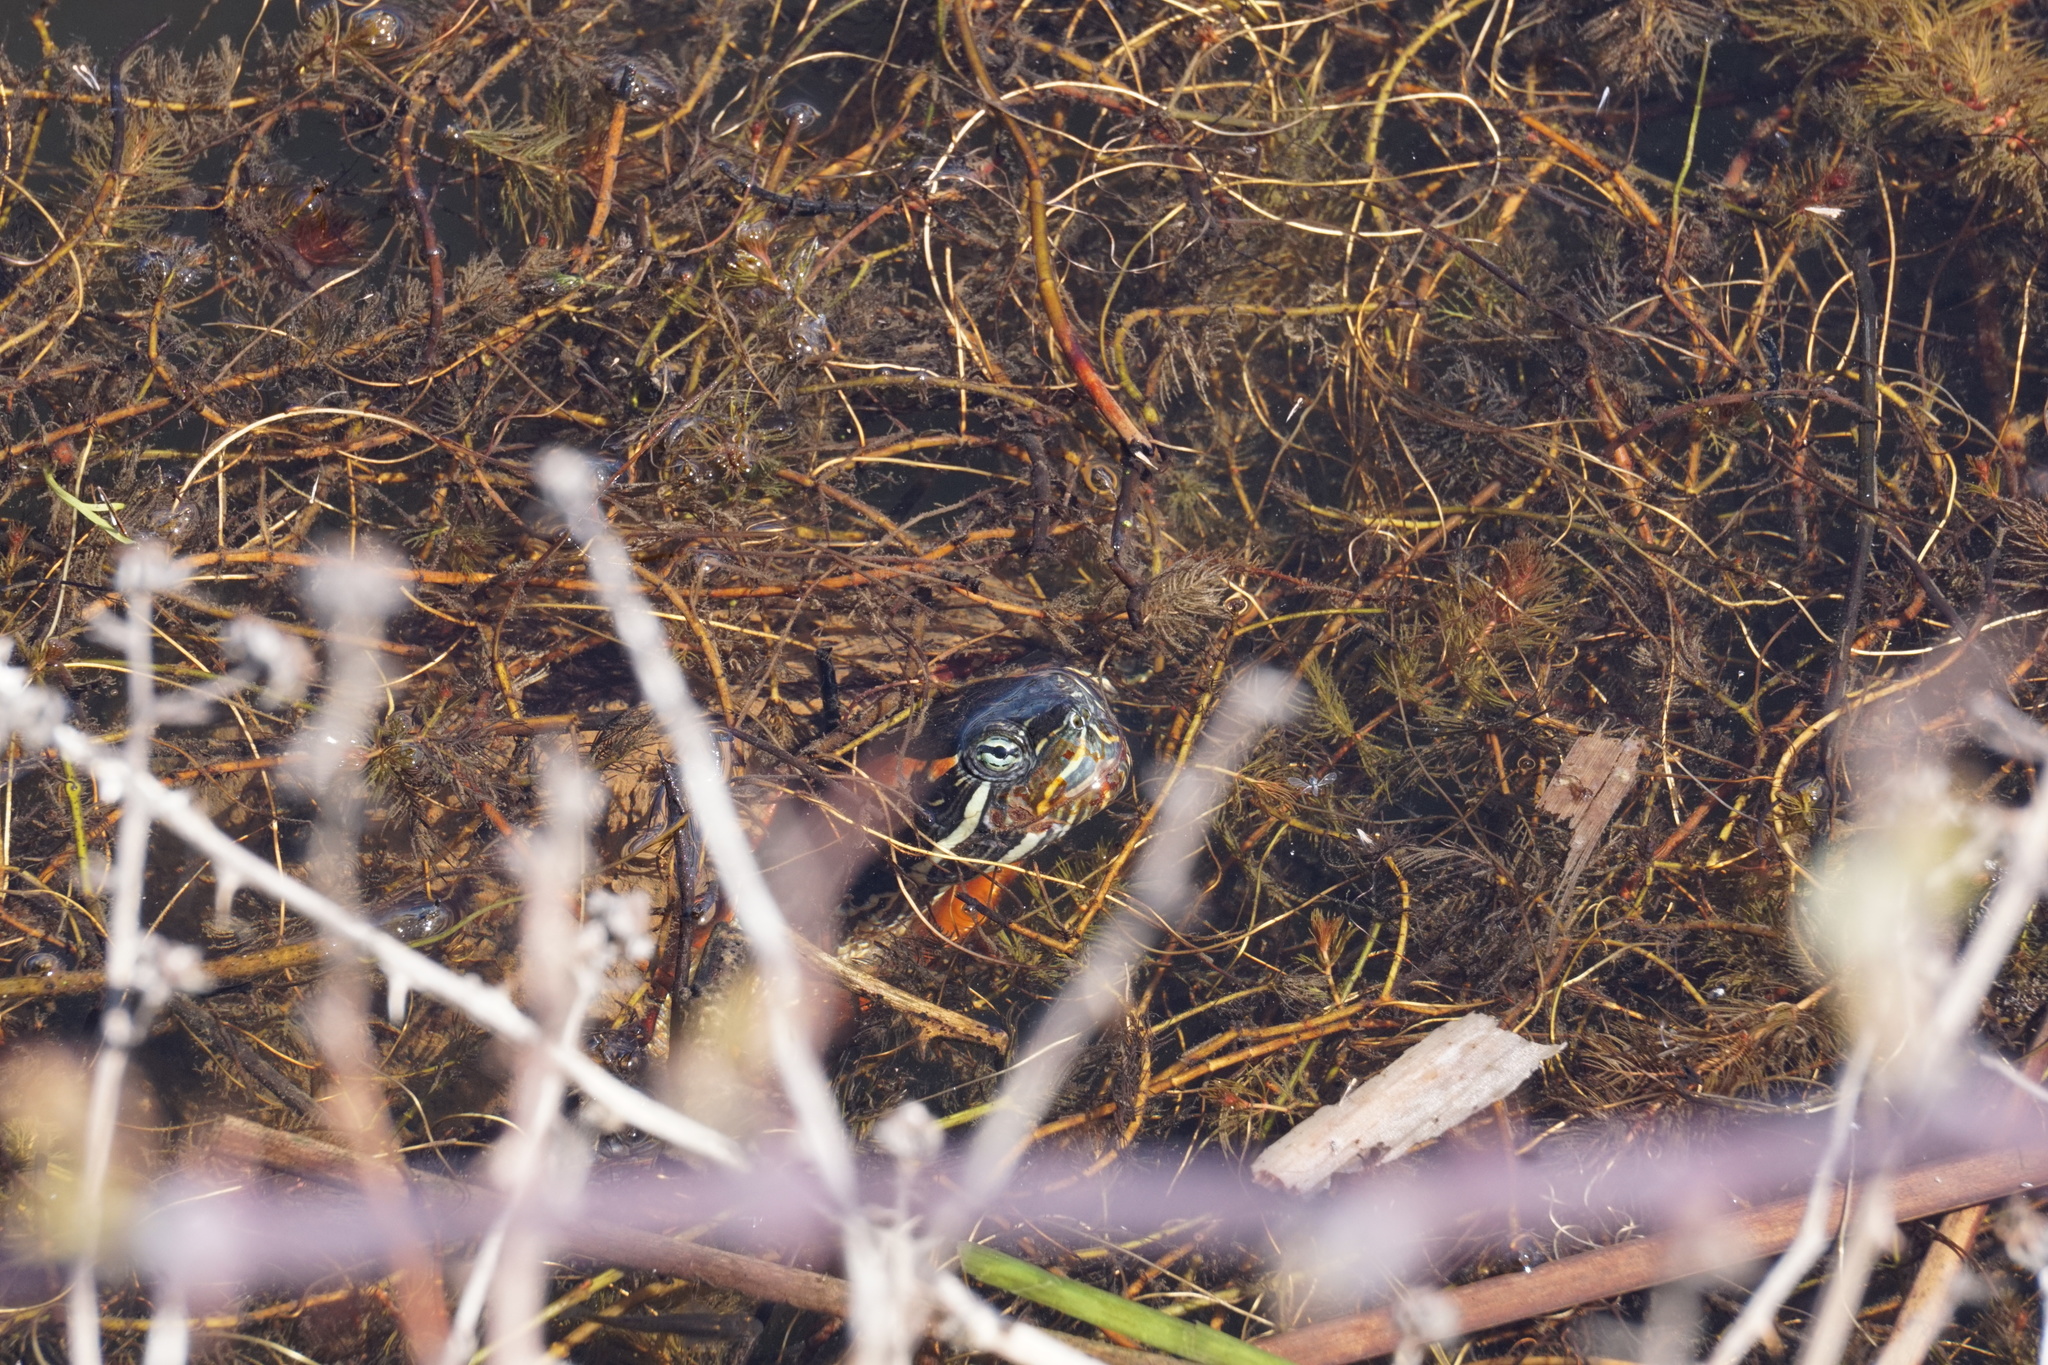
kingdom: Animalia
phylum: Chordata
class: Testudines
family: Emydidae
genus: Trachemys
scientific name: Trachemys scripta
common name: Slider
